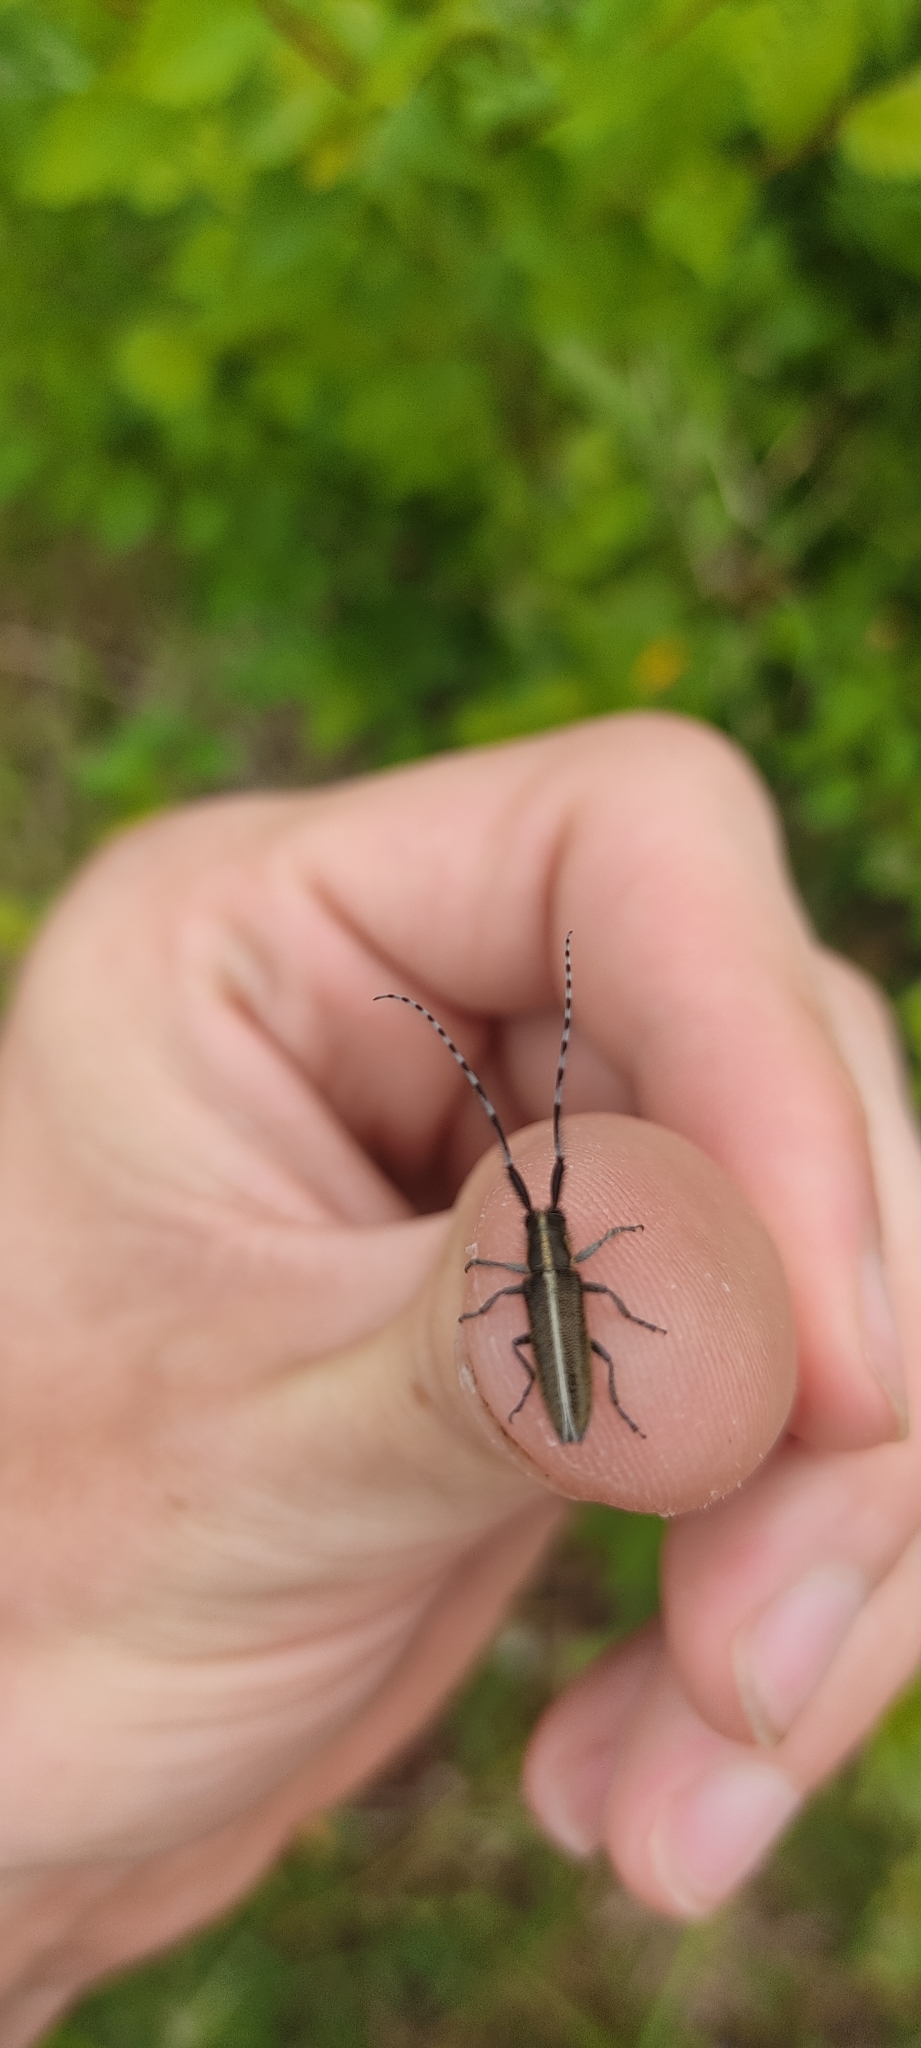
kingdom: Animalia
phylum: Arthropoda
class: Insecta
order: Coleoptera
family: Cerambycidae
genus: Agapanthia
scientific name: Agapanthia suturalis
